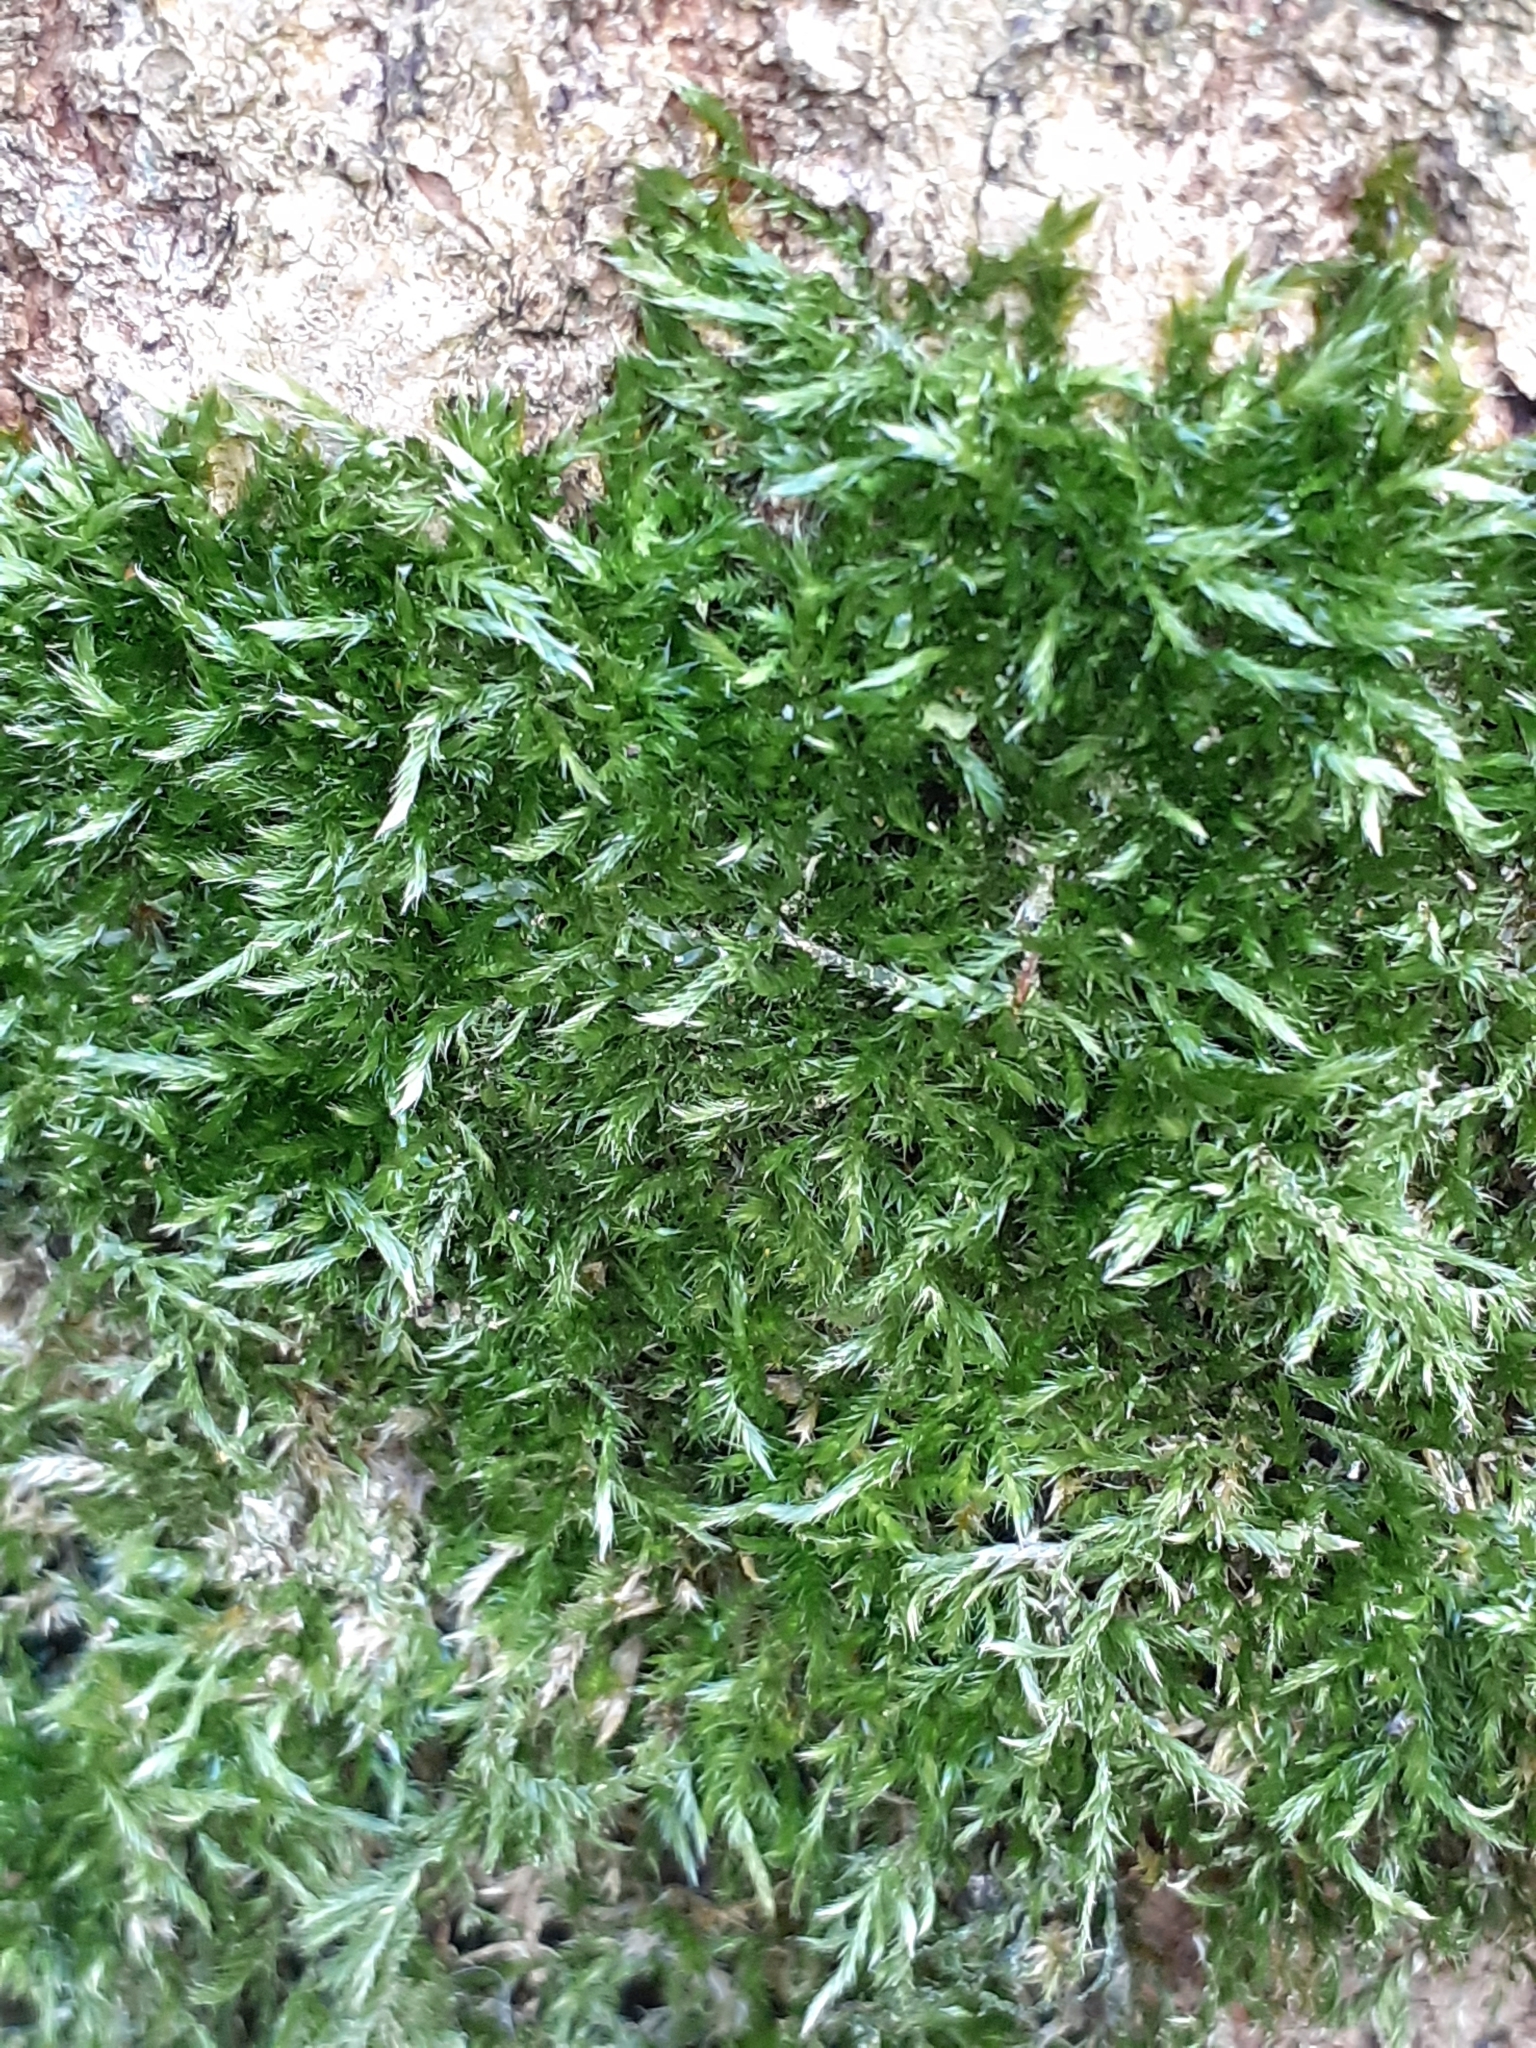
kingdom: Plantae
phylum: Bryophyta
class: Bryopsida
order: Hypnales
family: Hypnaceae
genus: Hypnum
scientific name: Hypnum resupinatum
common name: Supine plait-moss
